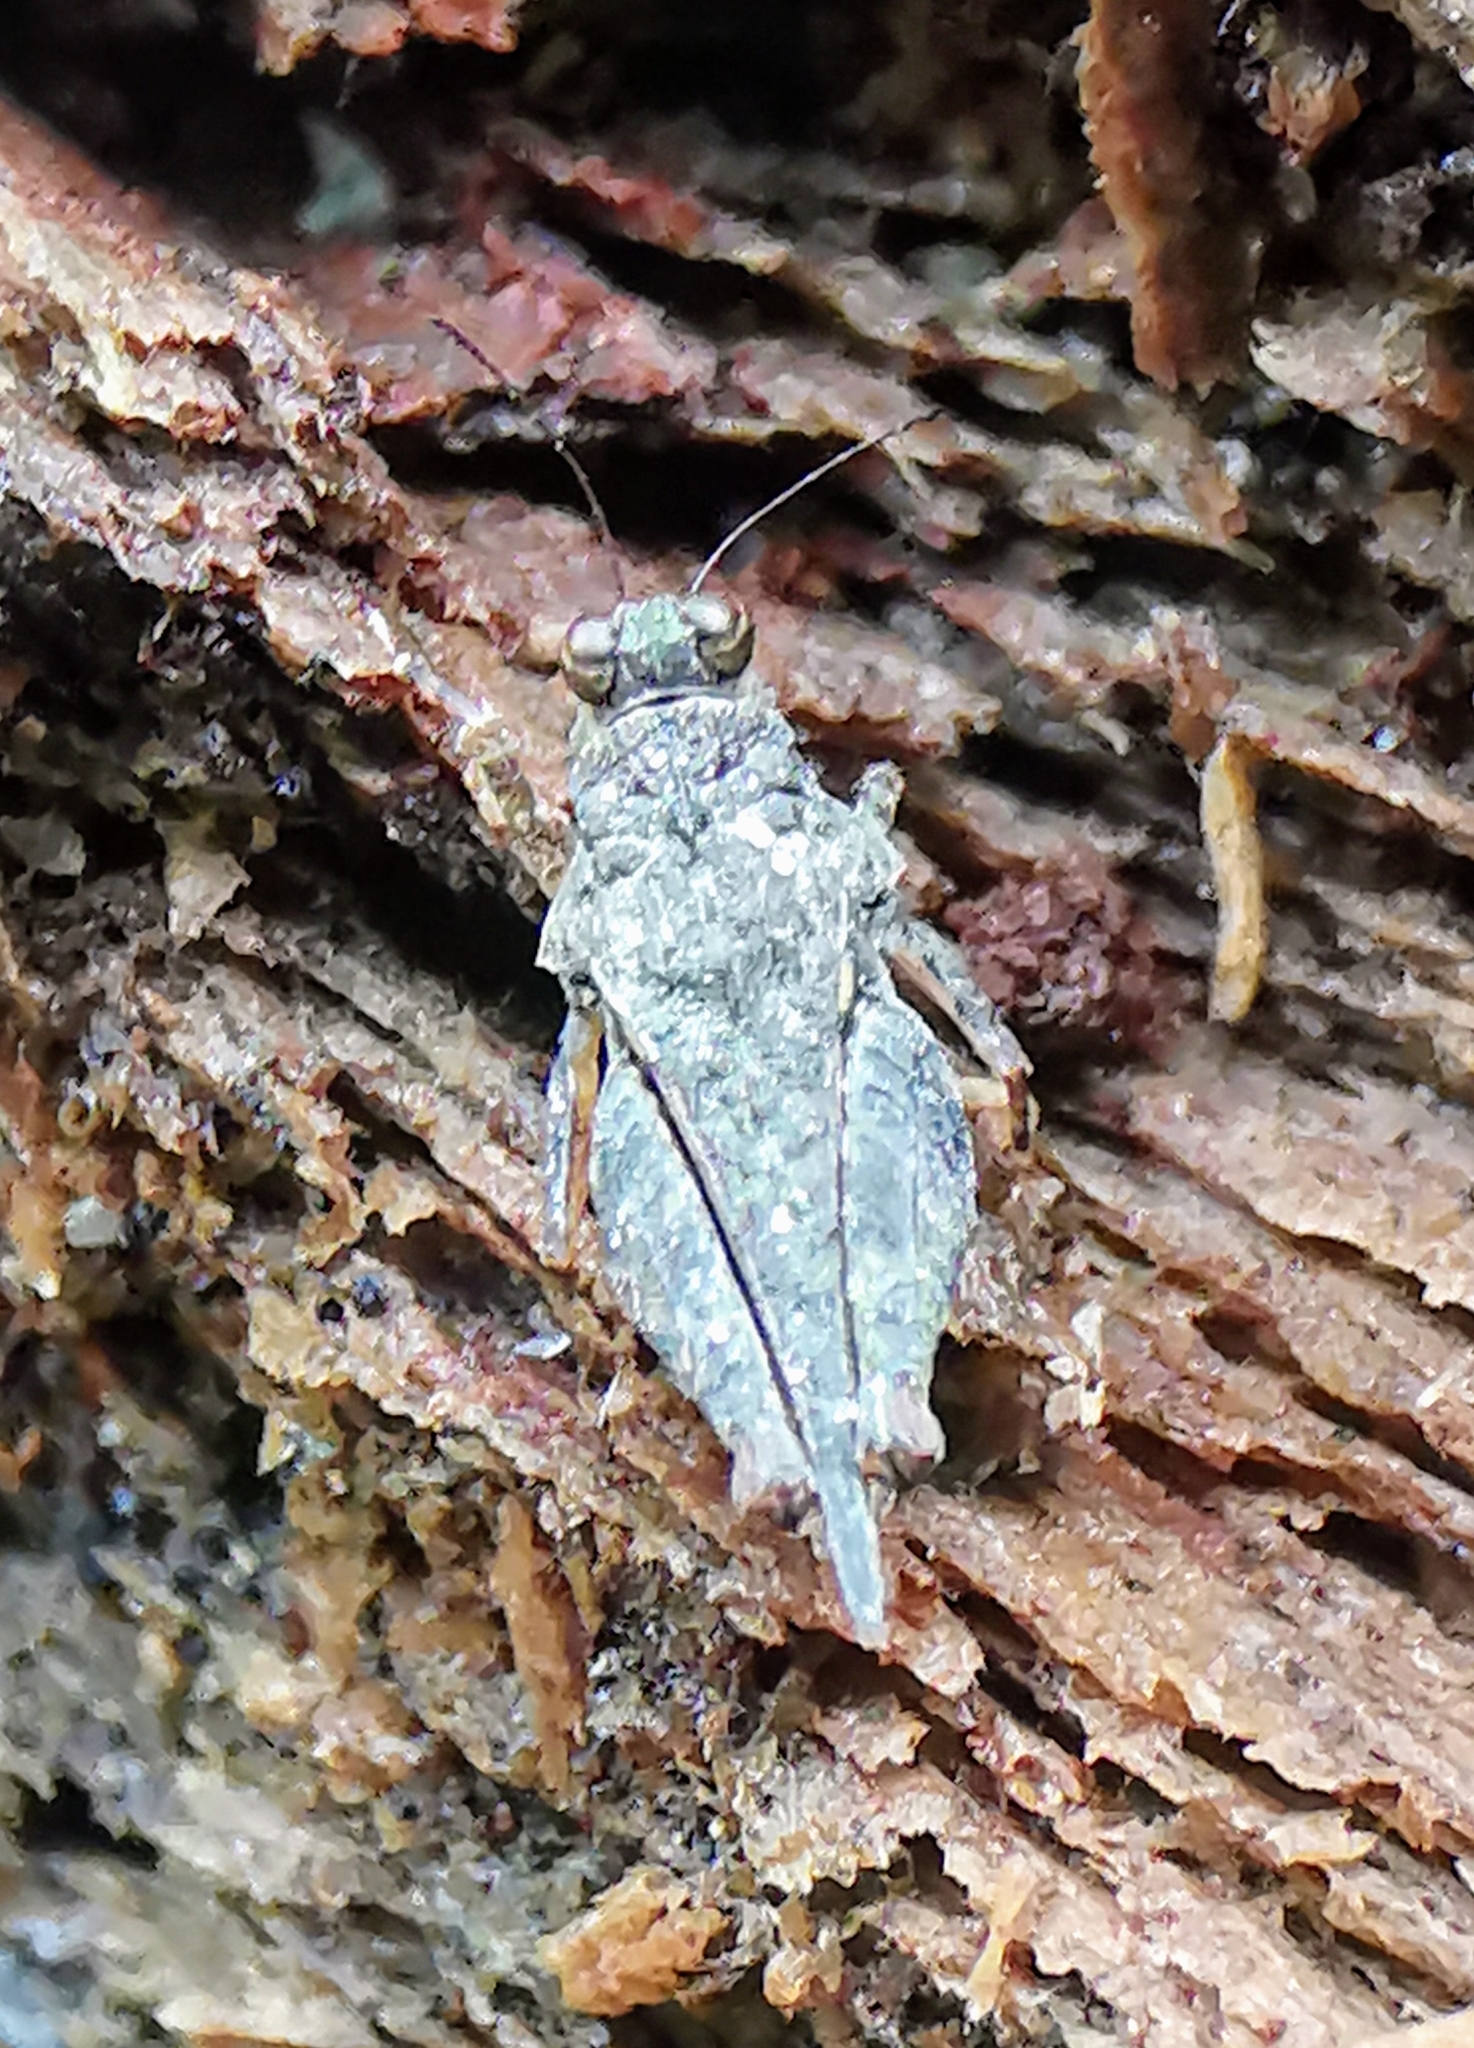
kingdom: Animalia
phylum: Arthropoda
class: Insecta
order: Orthoptera
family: Tetrigidae
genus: Loxilobus
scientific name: Loxilobus insidiosus
